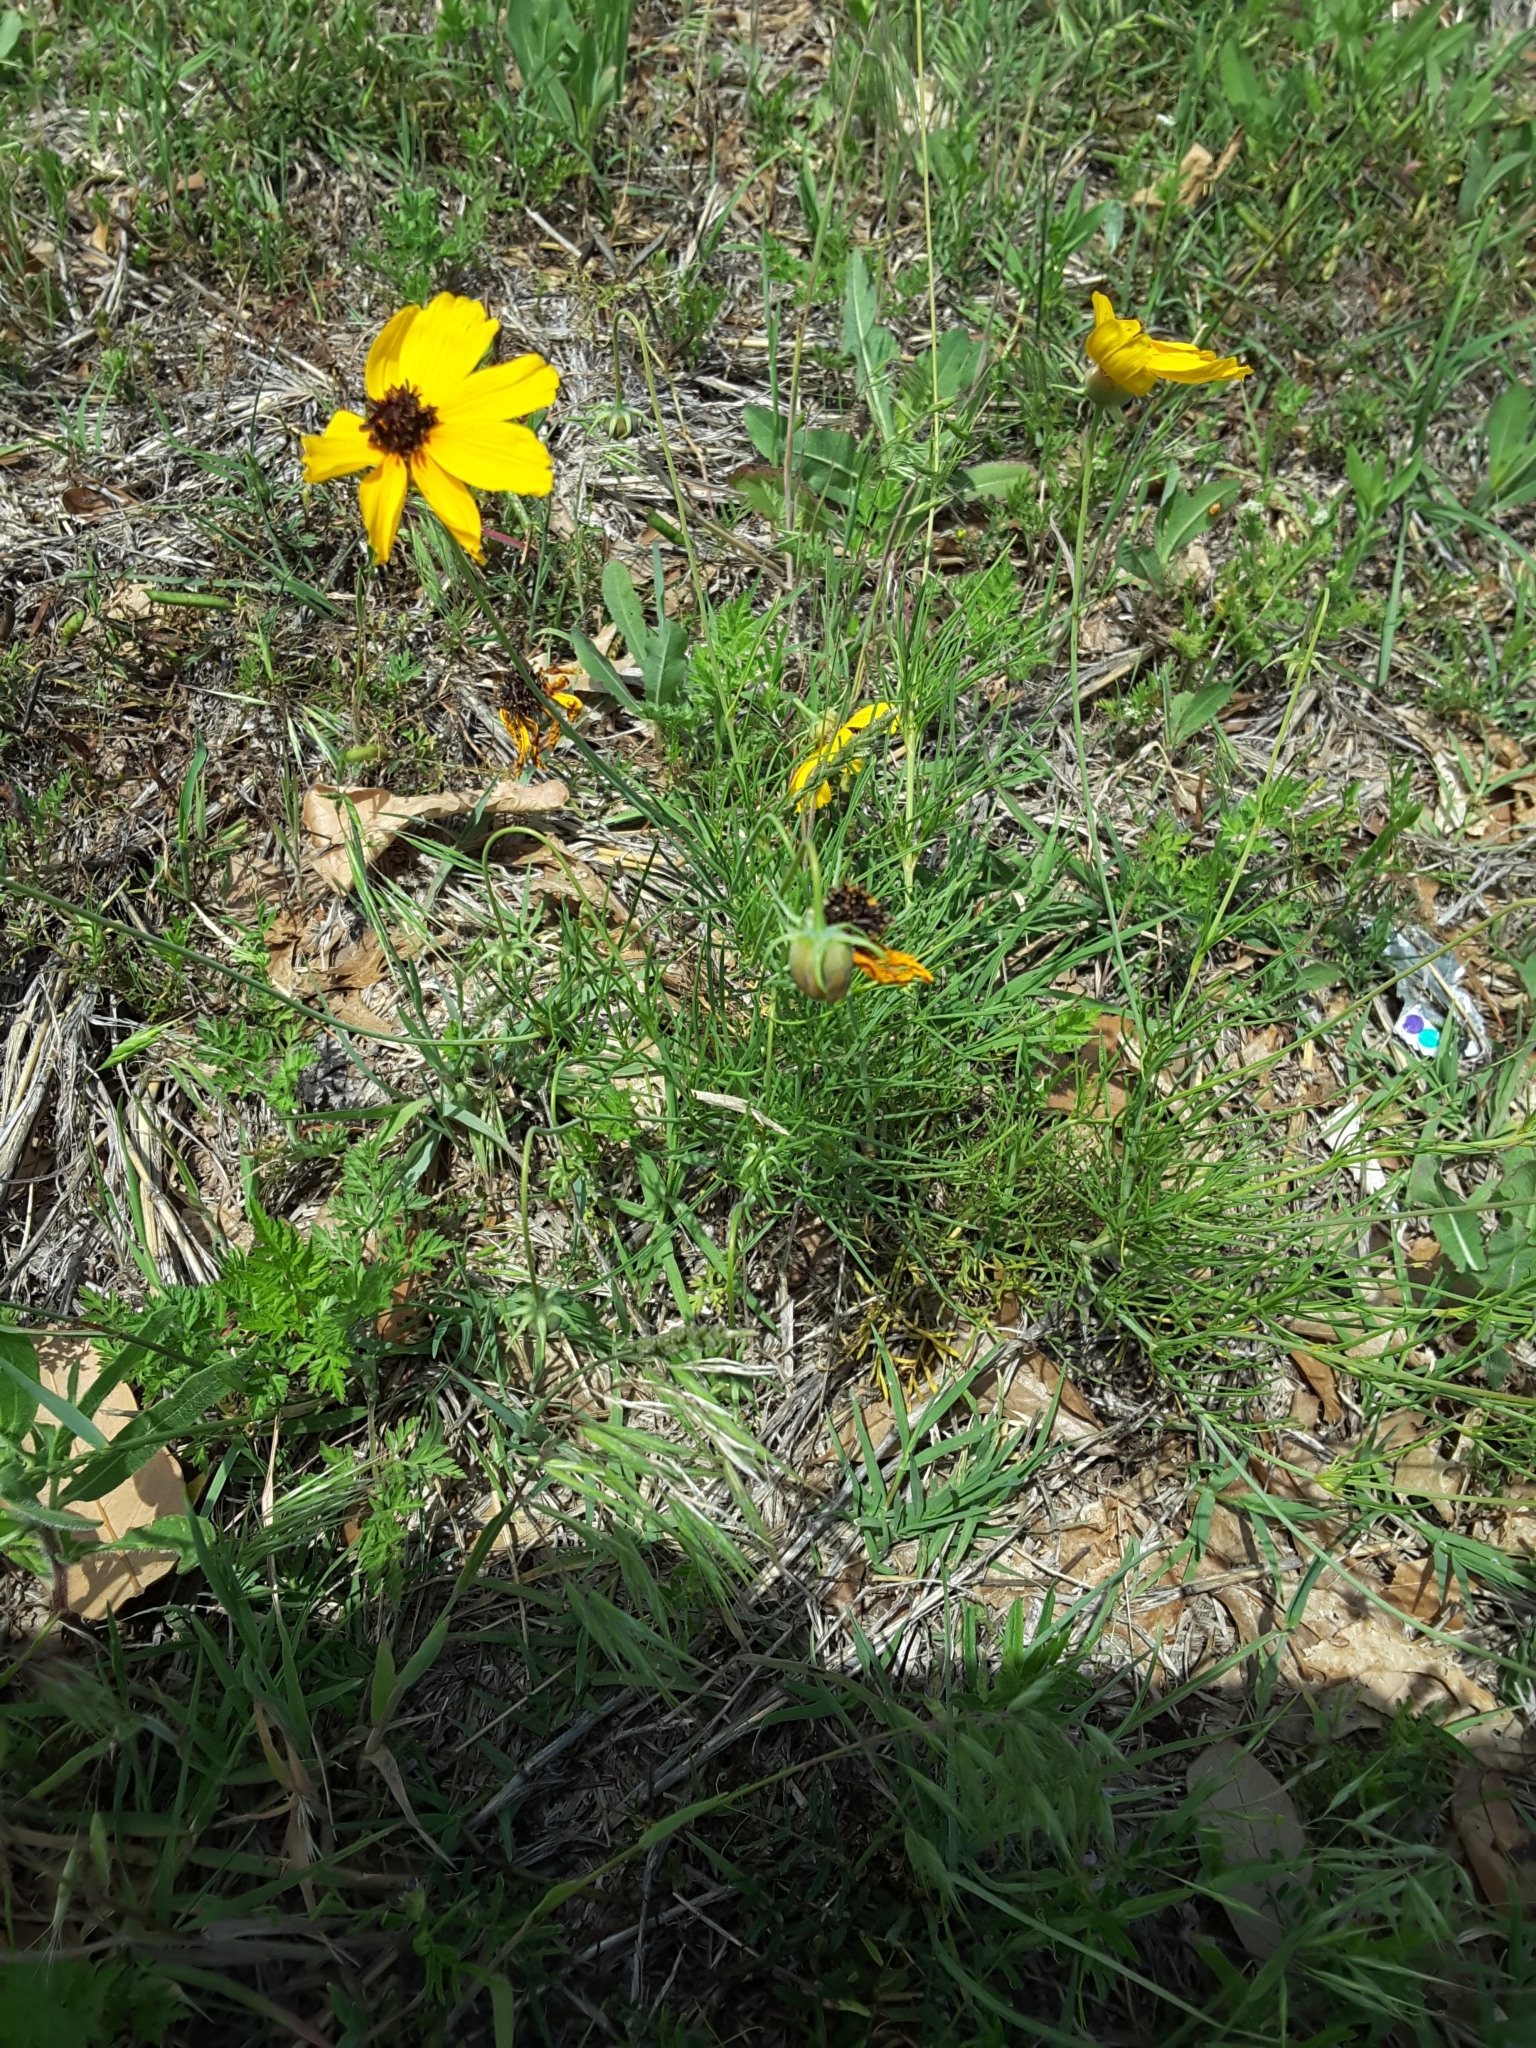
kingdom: Plantae
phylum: Tracheophyta
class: Magnoliopsida
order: Asterales
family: Asteraceae
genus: Thelesperma
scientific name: Thelesperma filifolium
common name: Stiff greenthread
